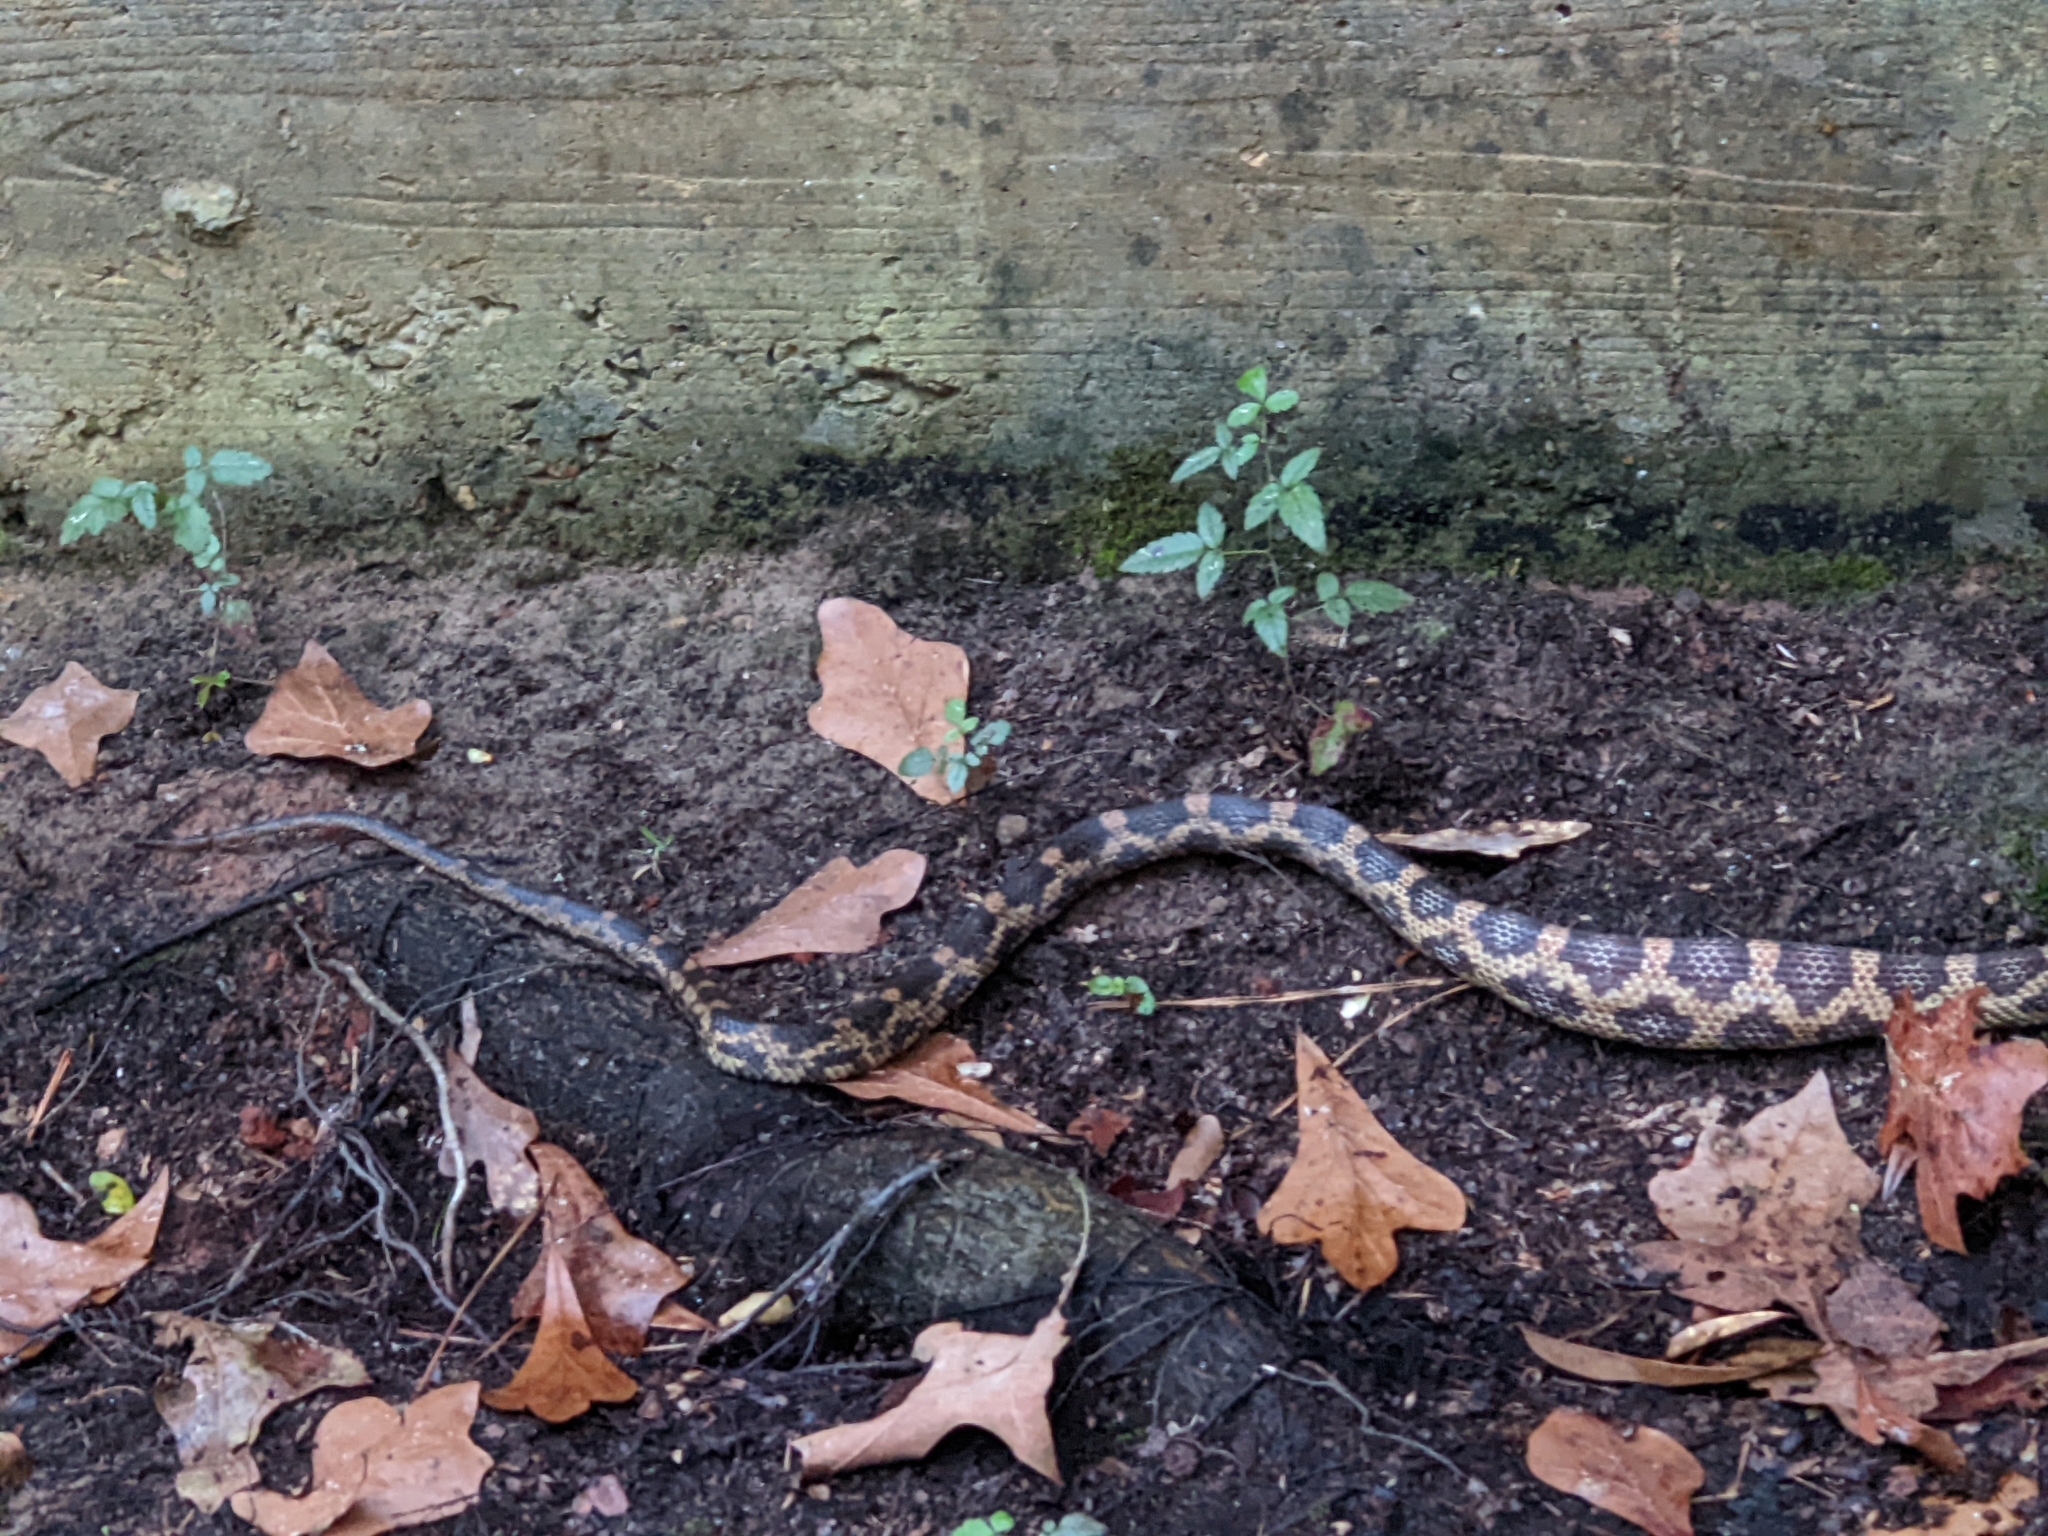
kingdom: Animalia
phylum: Chordata
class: Squamata
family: Colubridae
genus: Pantherophis
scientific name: Pantherophis spiloides
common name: Gray rat snake
